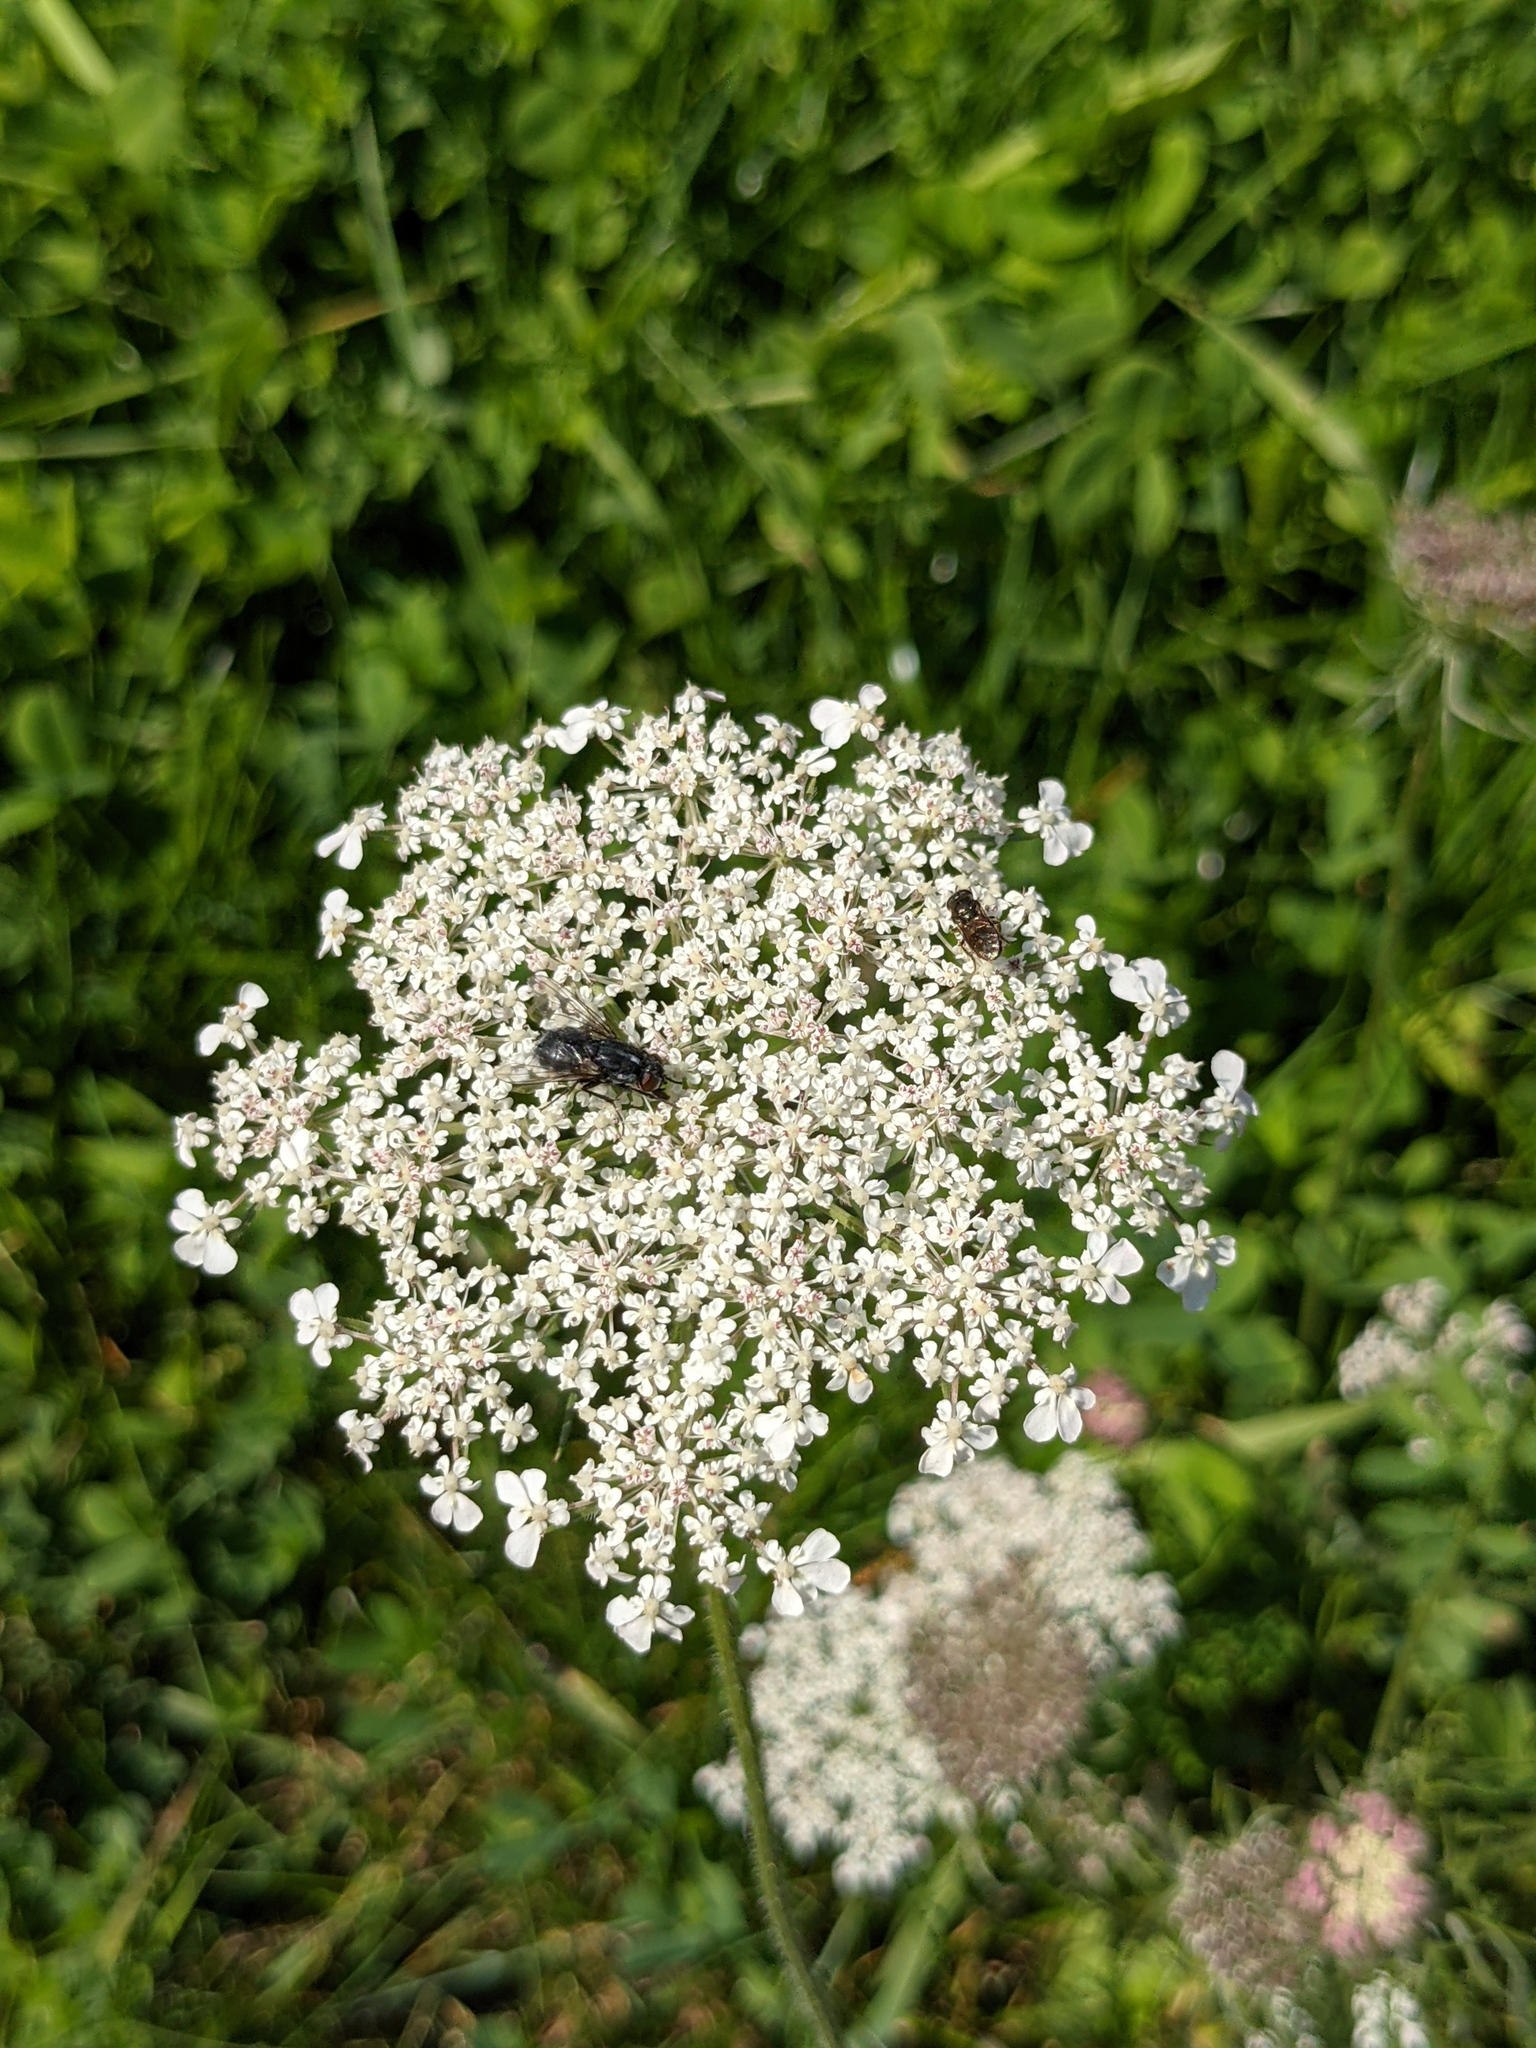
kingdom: Plantae
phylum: Tracheophyta
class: Magnoliopsida
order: Apiales
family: Apiaceae
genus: Daucus
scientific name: Daucus carota
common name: Wild carrot
